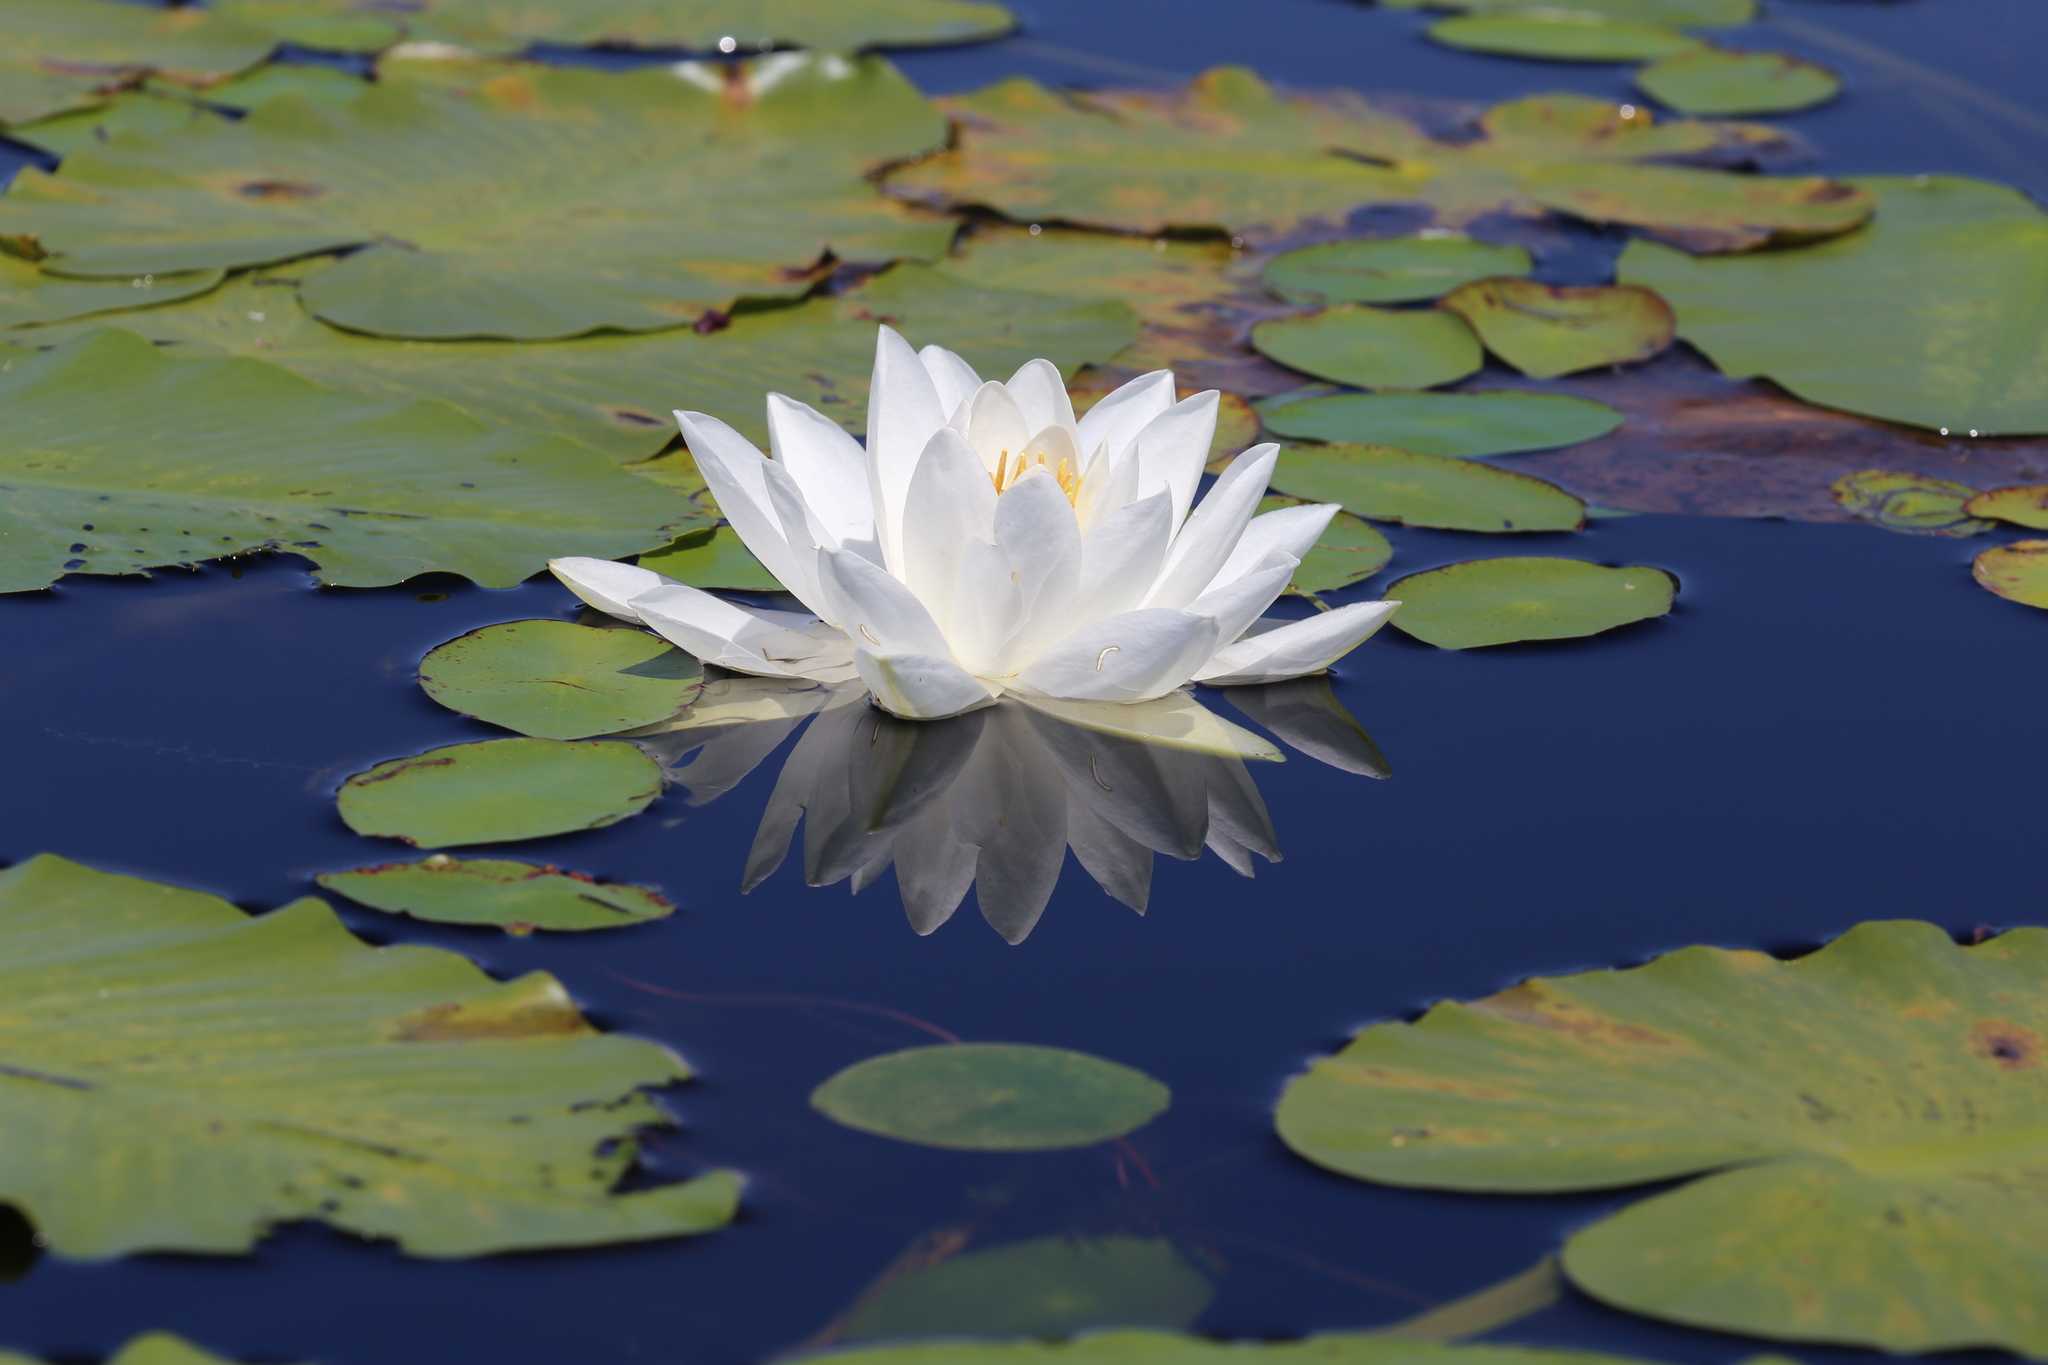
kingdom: Plantae
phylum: Tracheophyta
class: Magnoliopsida
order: Nymphaeales
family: Nymphaeaceae
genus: Nymphaea
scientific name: Nymphaea odorata
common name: Fragrant water-lily
